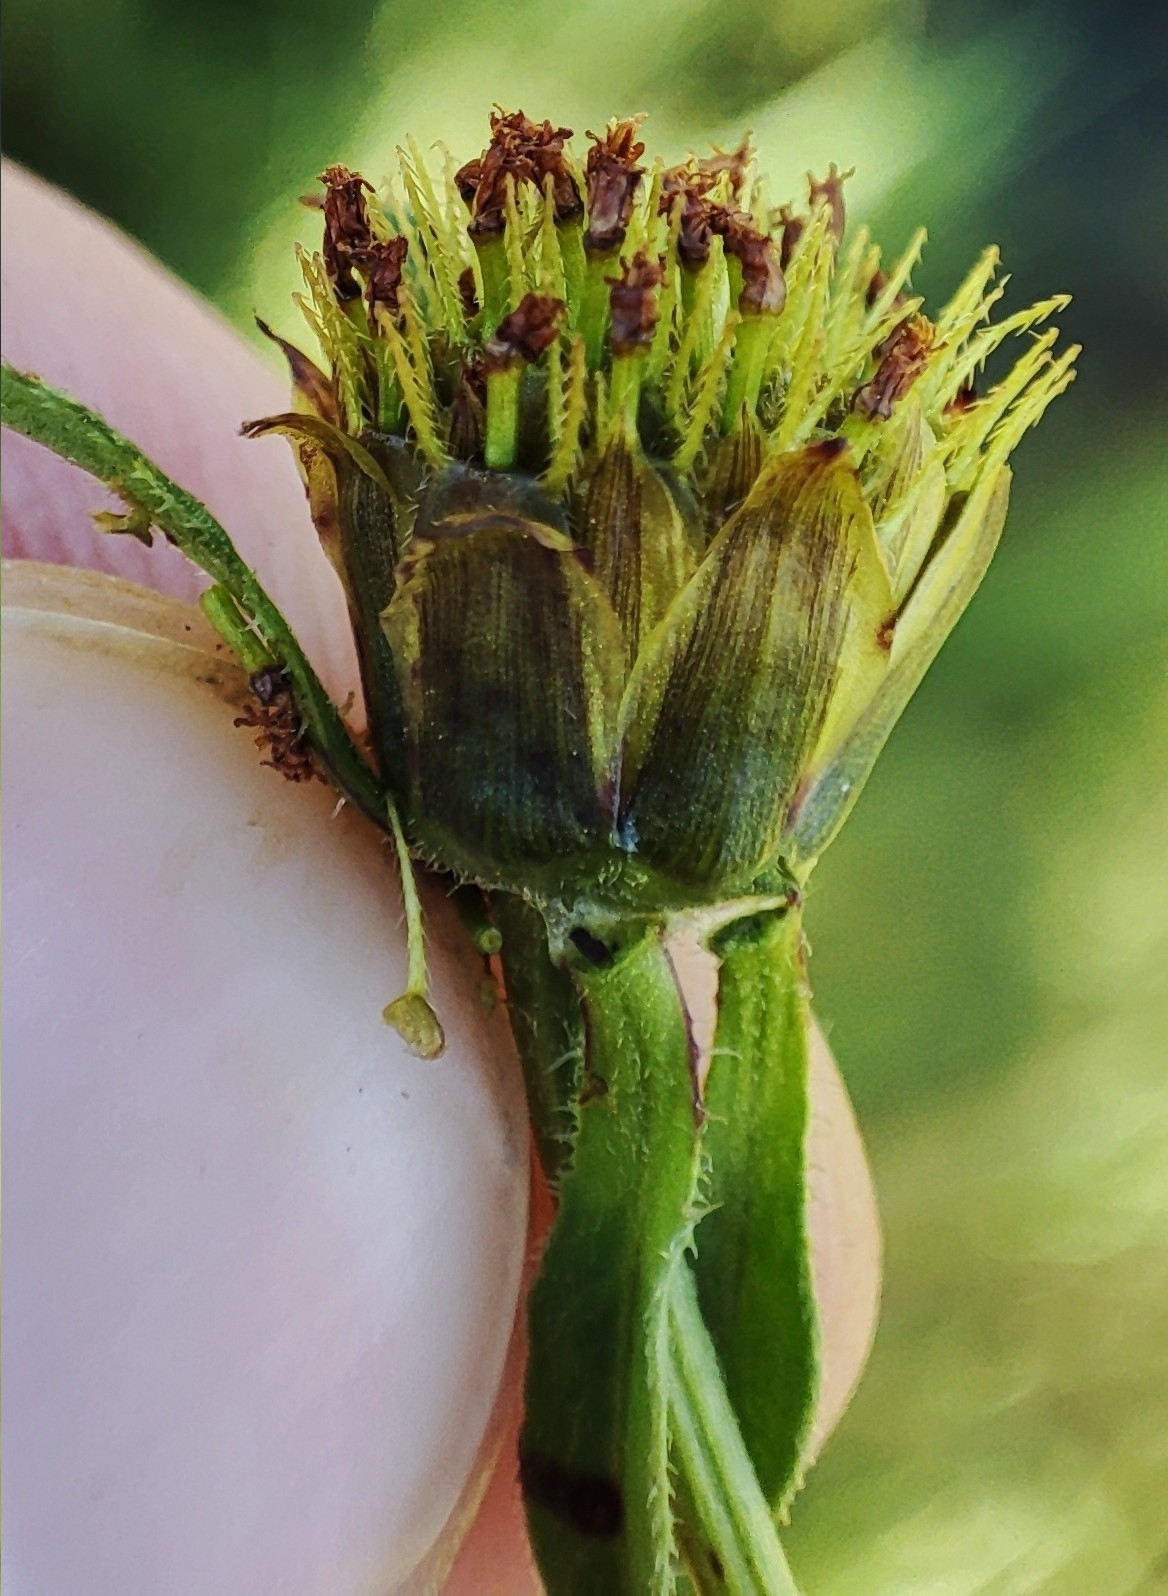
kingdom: Plantae
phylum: Tracheophyta
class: Magnoliopsida
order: Asterales
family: Asteraceae
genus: Bidens
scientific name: Bidens tripartita
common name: Trifid bur-marigold
